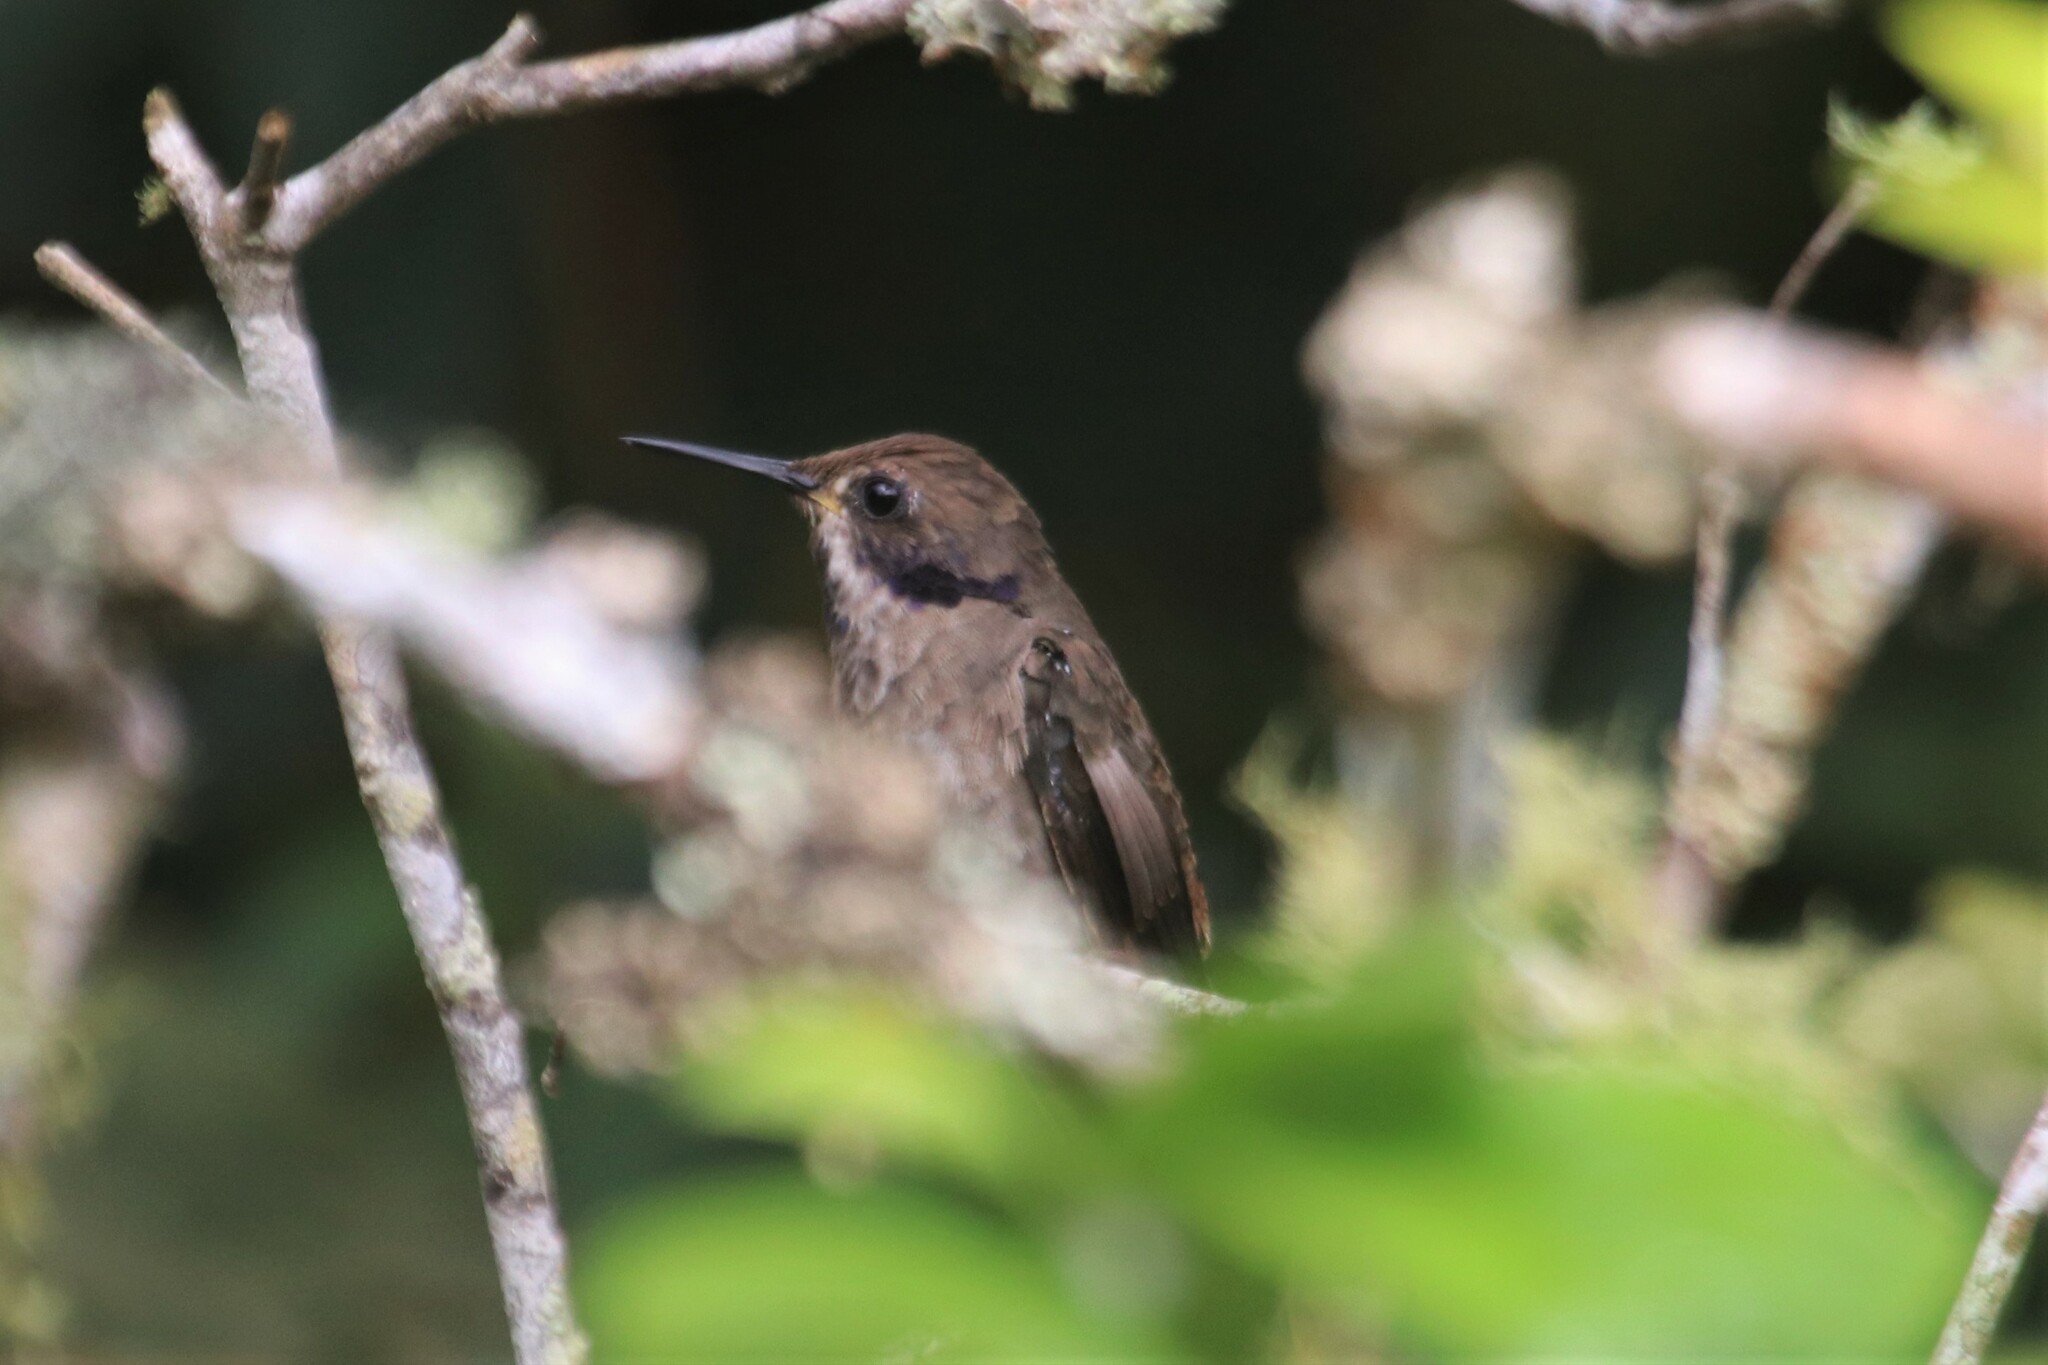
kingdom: Animalia
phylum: Chordata
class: Aves
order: Apodiformes
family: Trochilidae
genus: Colibri
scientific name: Colibri delphinae
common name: Brown violetear
